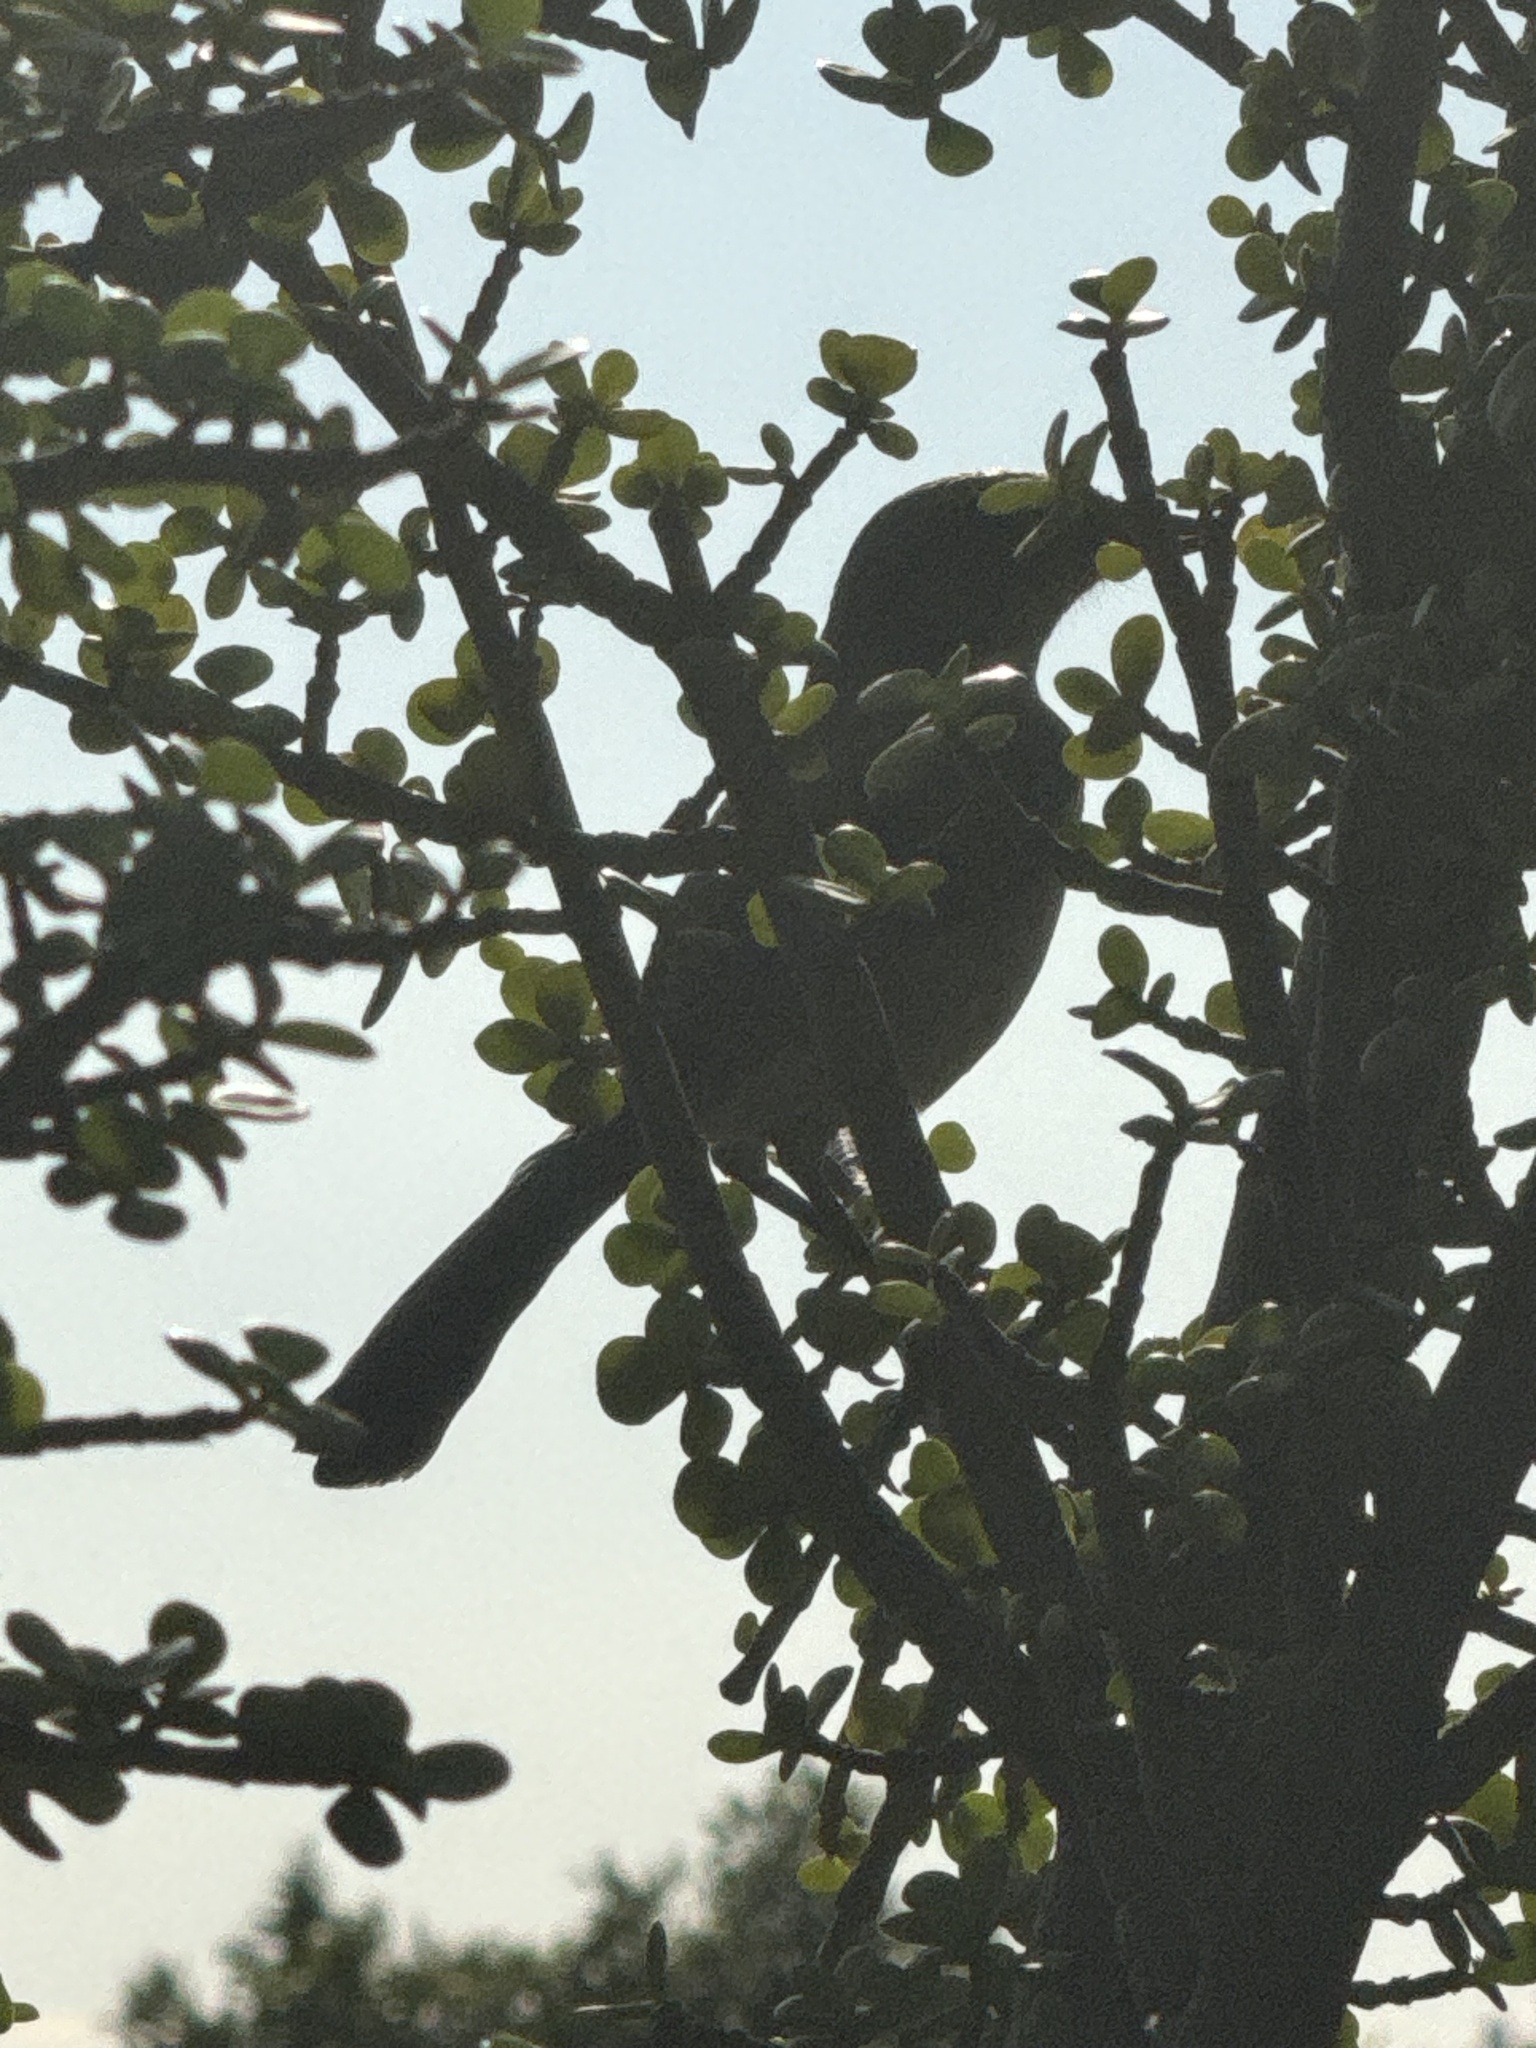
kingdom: Animalia
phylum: Chordata
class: Aves
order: Passeriformes
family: Corvidae
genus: Aphelocoma
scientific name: Aphelocoma californica
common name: California scrub-jay
